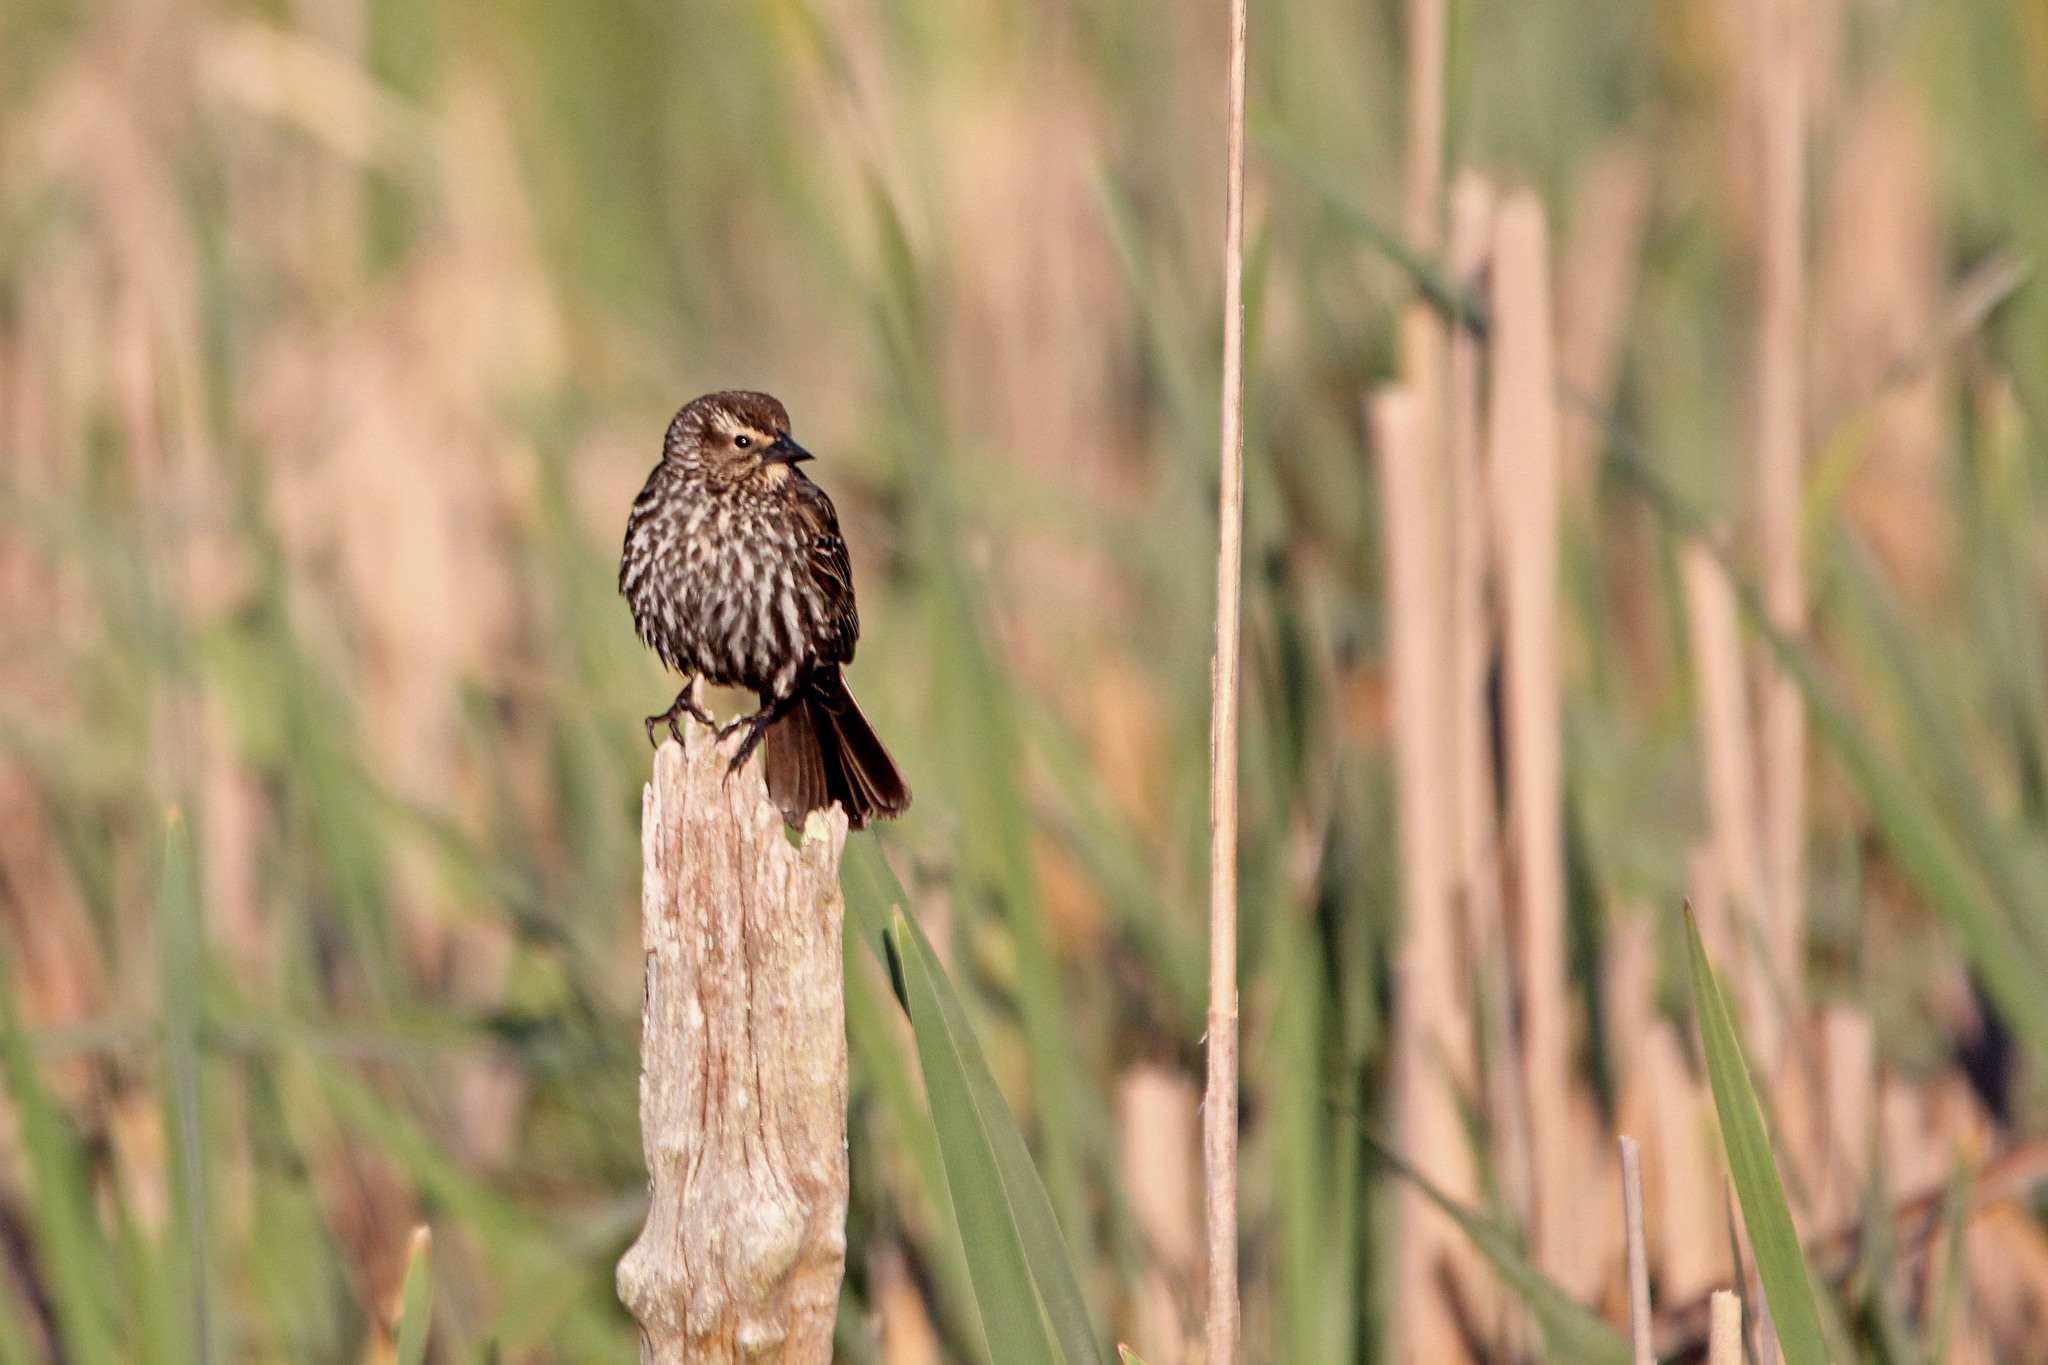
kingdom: Animalia
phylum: Chordata
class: Aves
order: Passeriformes
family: Icteridae
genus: Agelaius
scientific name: Agelaius phoeniceus
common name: Red-winged blackbird
